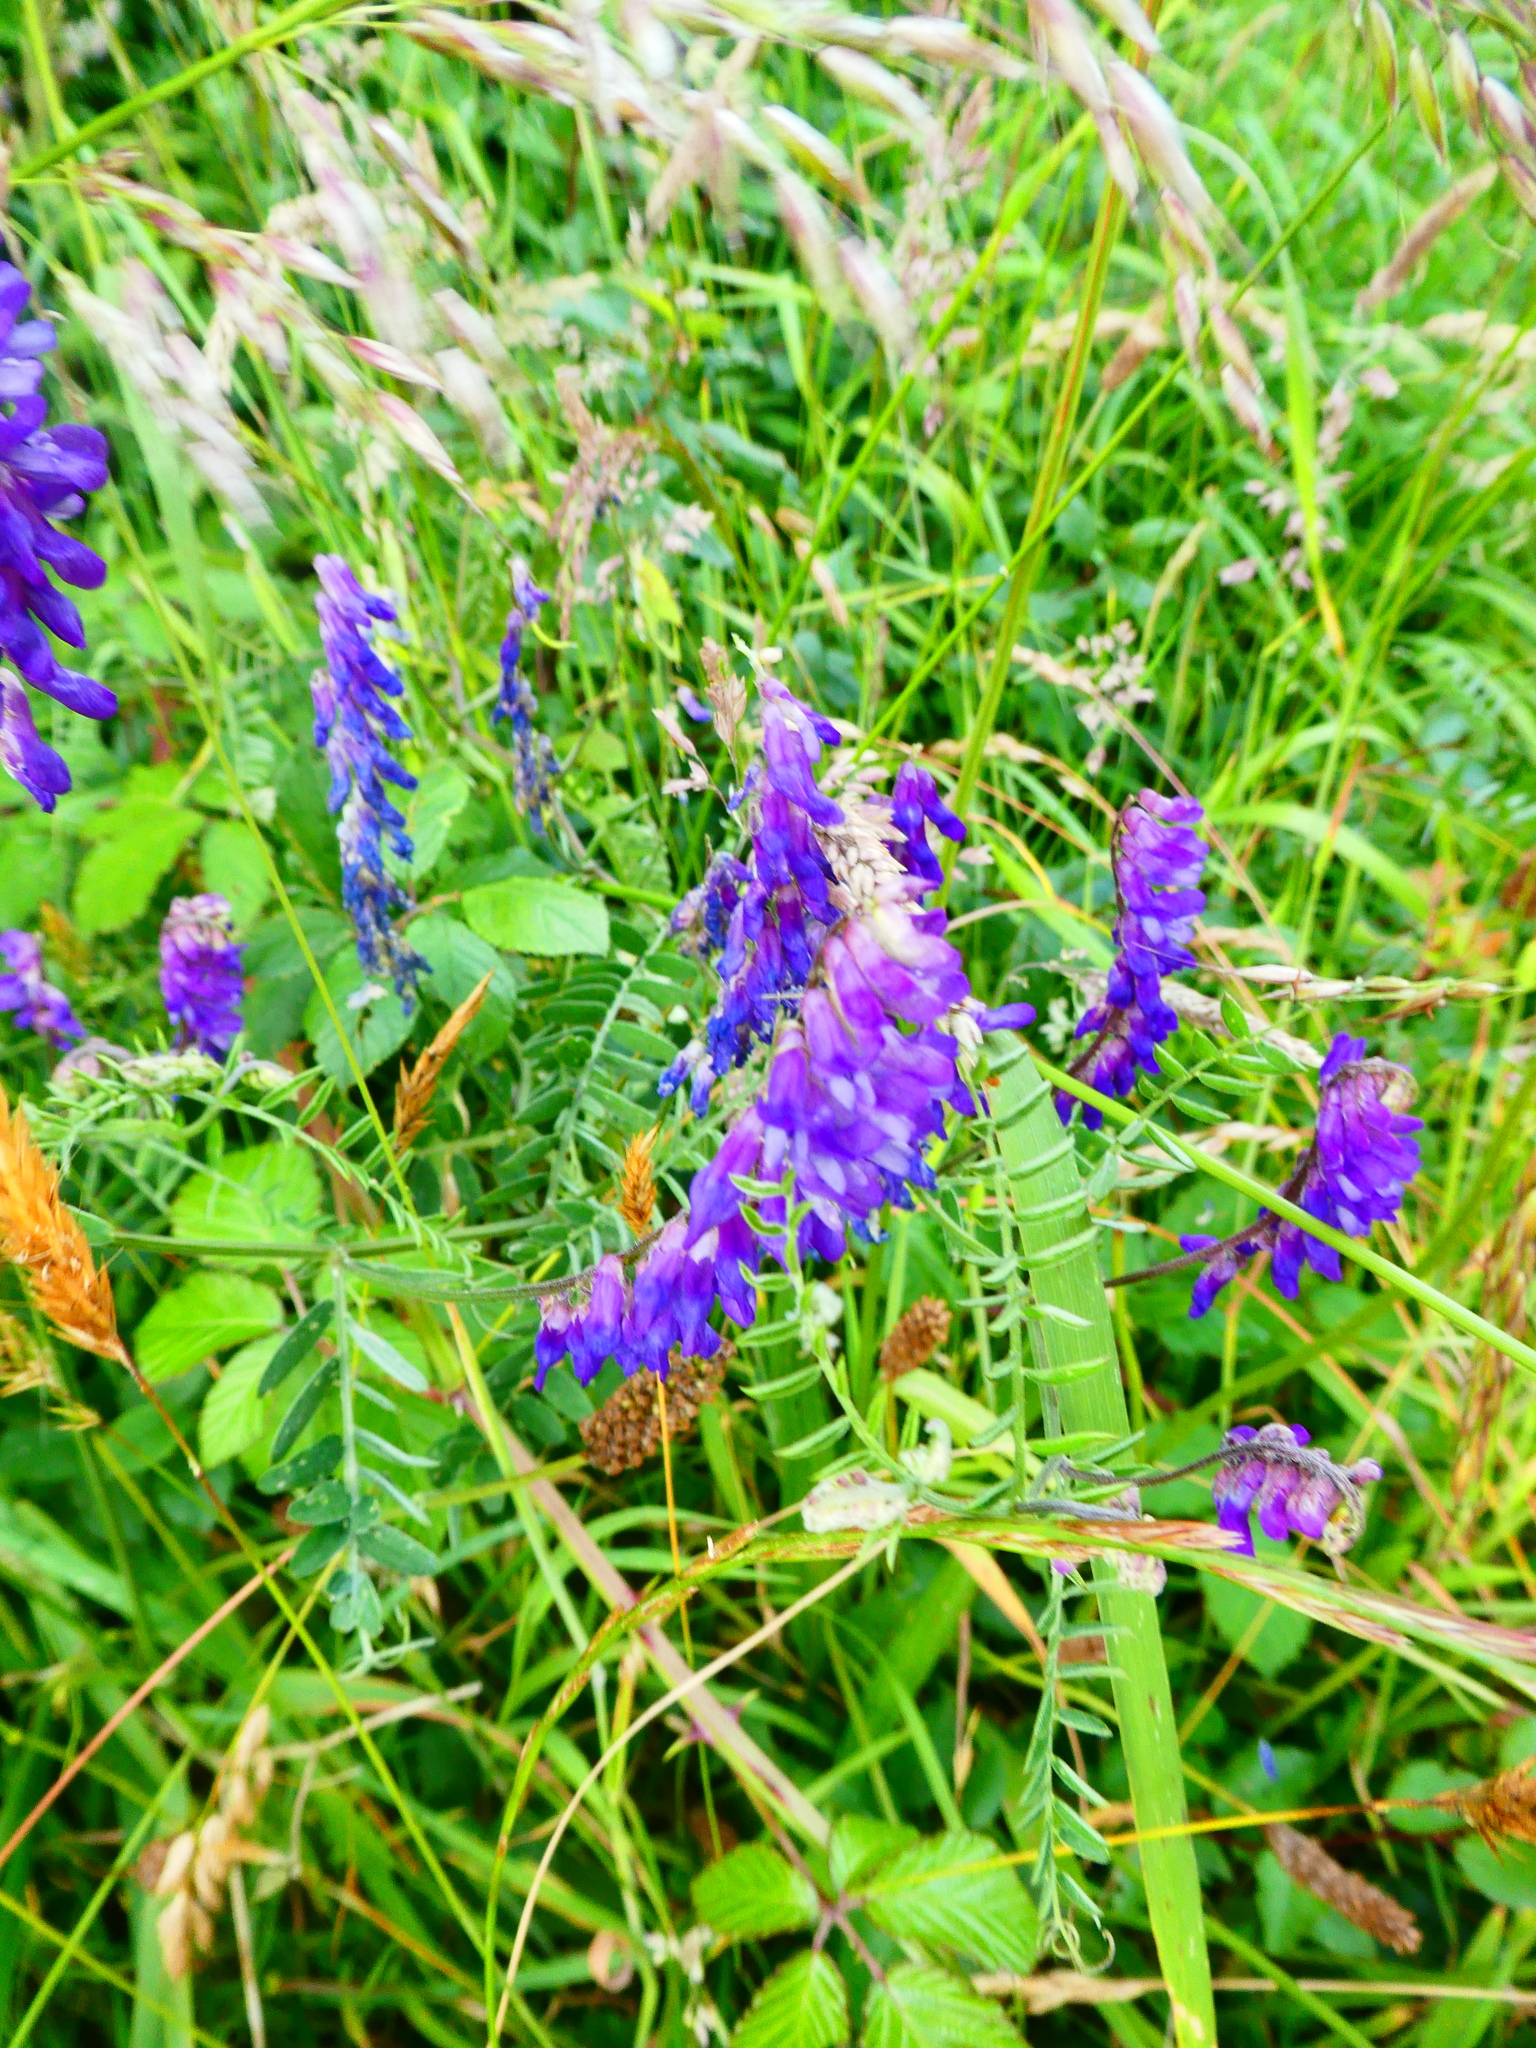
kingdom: Plantae
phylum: Tracheophyta
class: Magnoliopsida
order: Fabales
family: Fabaceae
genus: Vicia
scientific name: Vicia cracca
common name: Bird vetch
